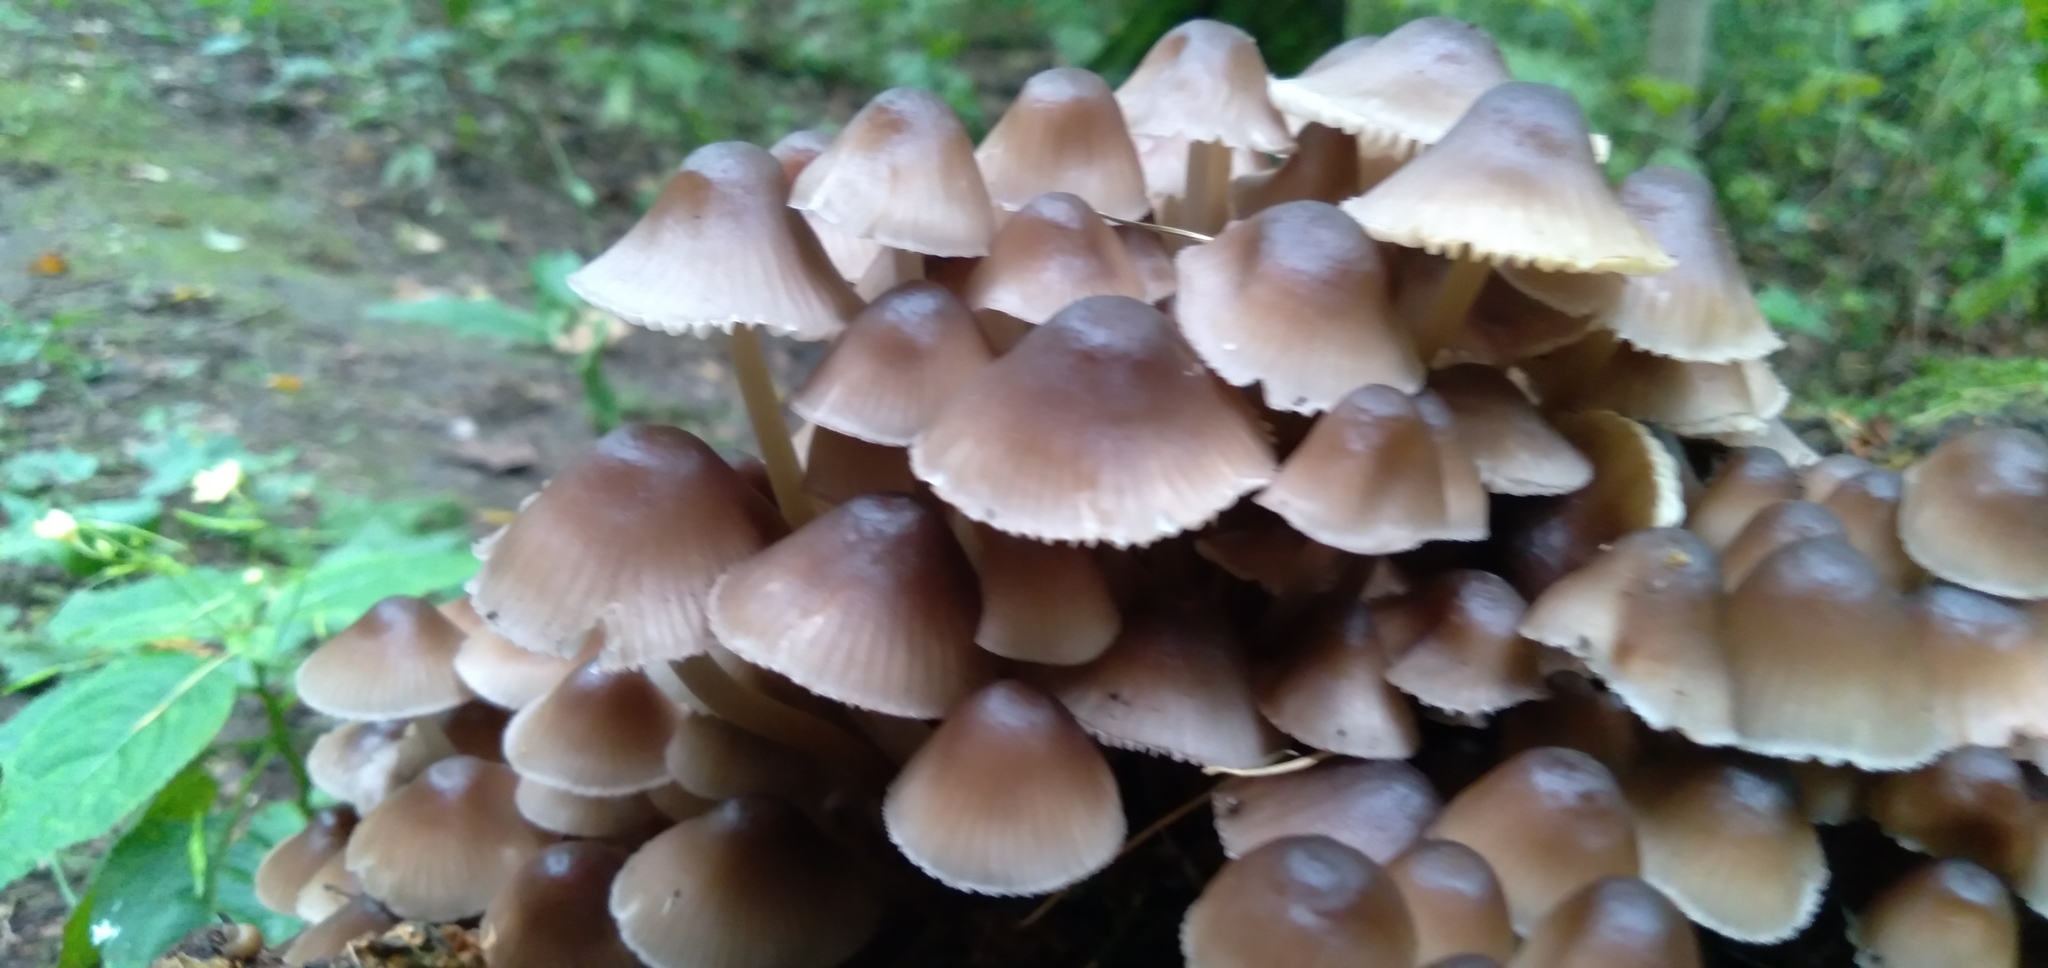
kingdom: Fungi
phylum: Basidiomycota
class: Agaricomycetes
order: Agaricales
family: Mycenaceae
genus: Mycena
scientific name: Mycena leptocephala
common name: Nitrous bonnet
